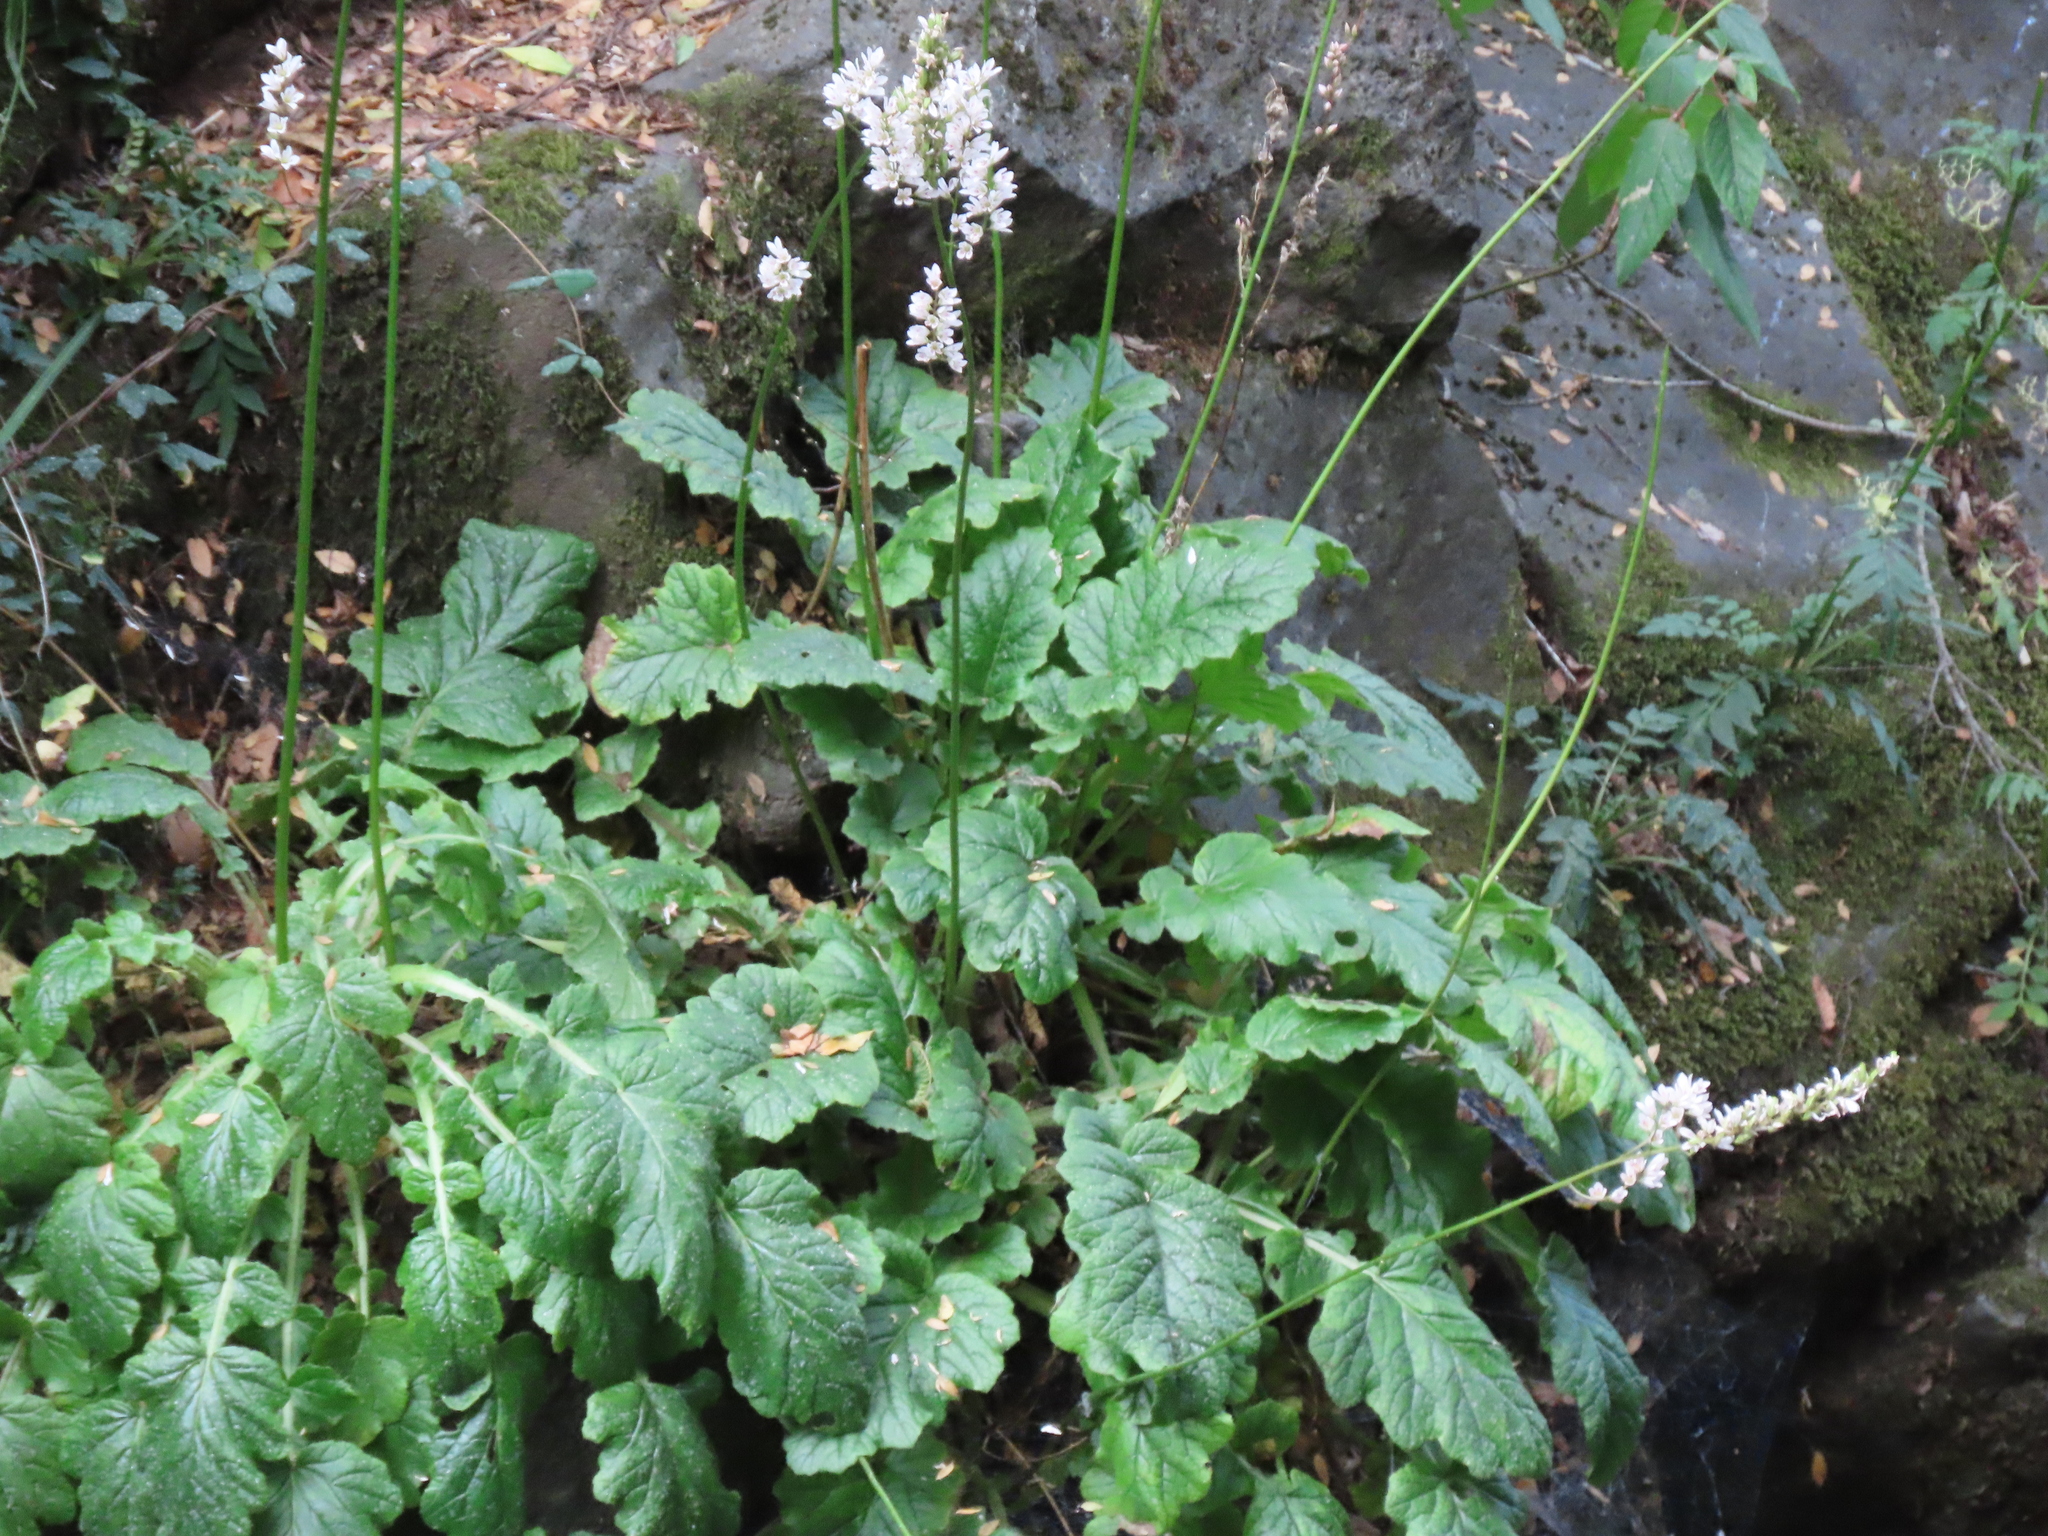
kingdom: Plantae
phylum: Tracheophyta
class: Magnoliopsida
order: Geraniales
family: Francoaceae
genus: Francoa
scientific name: Francoa appendiculata
